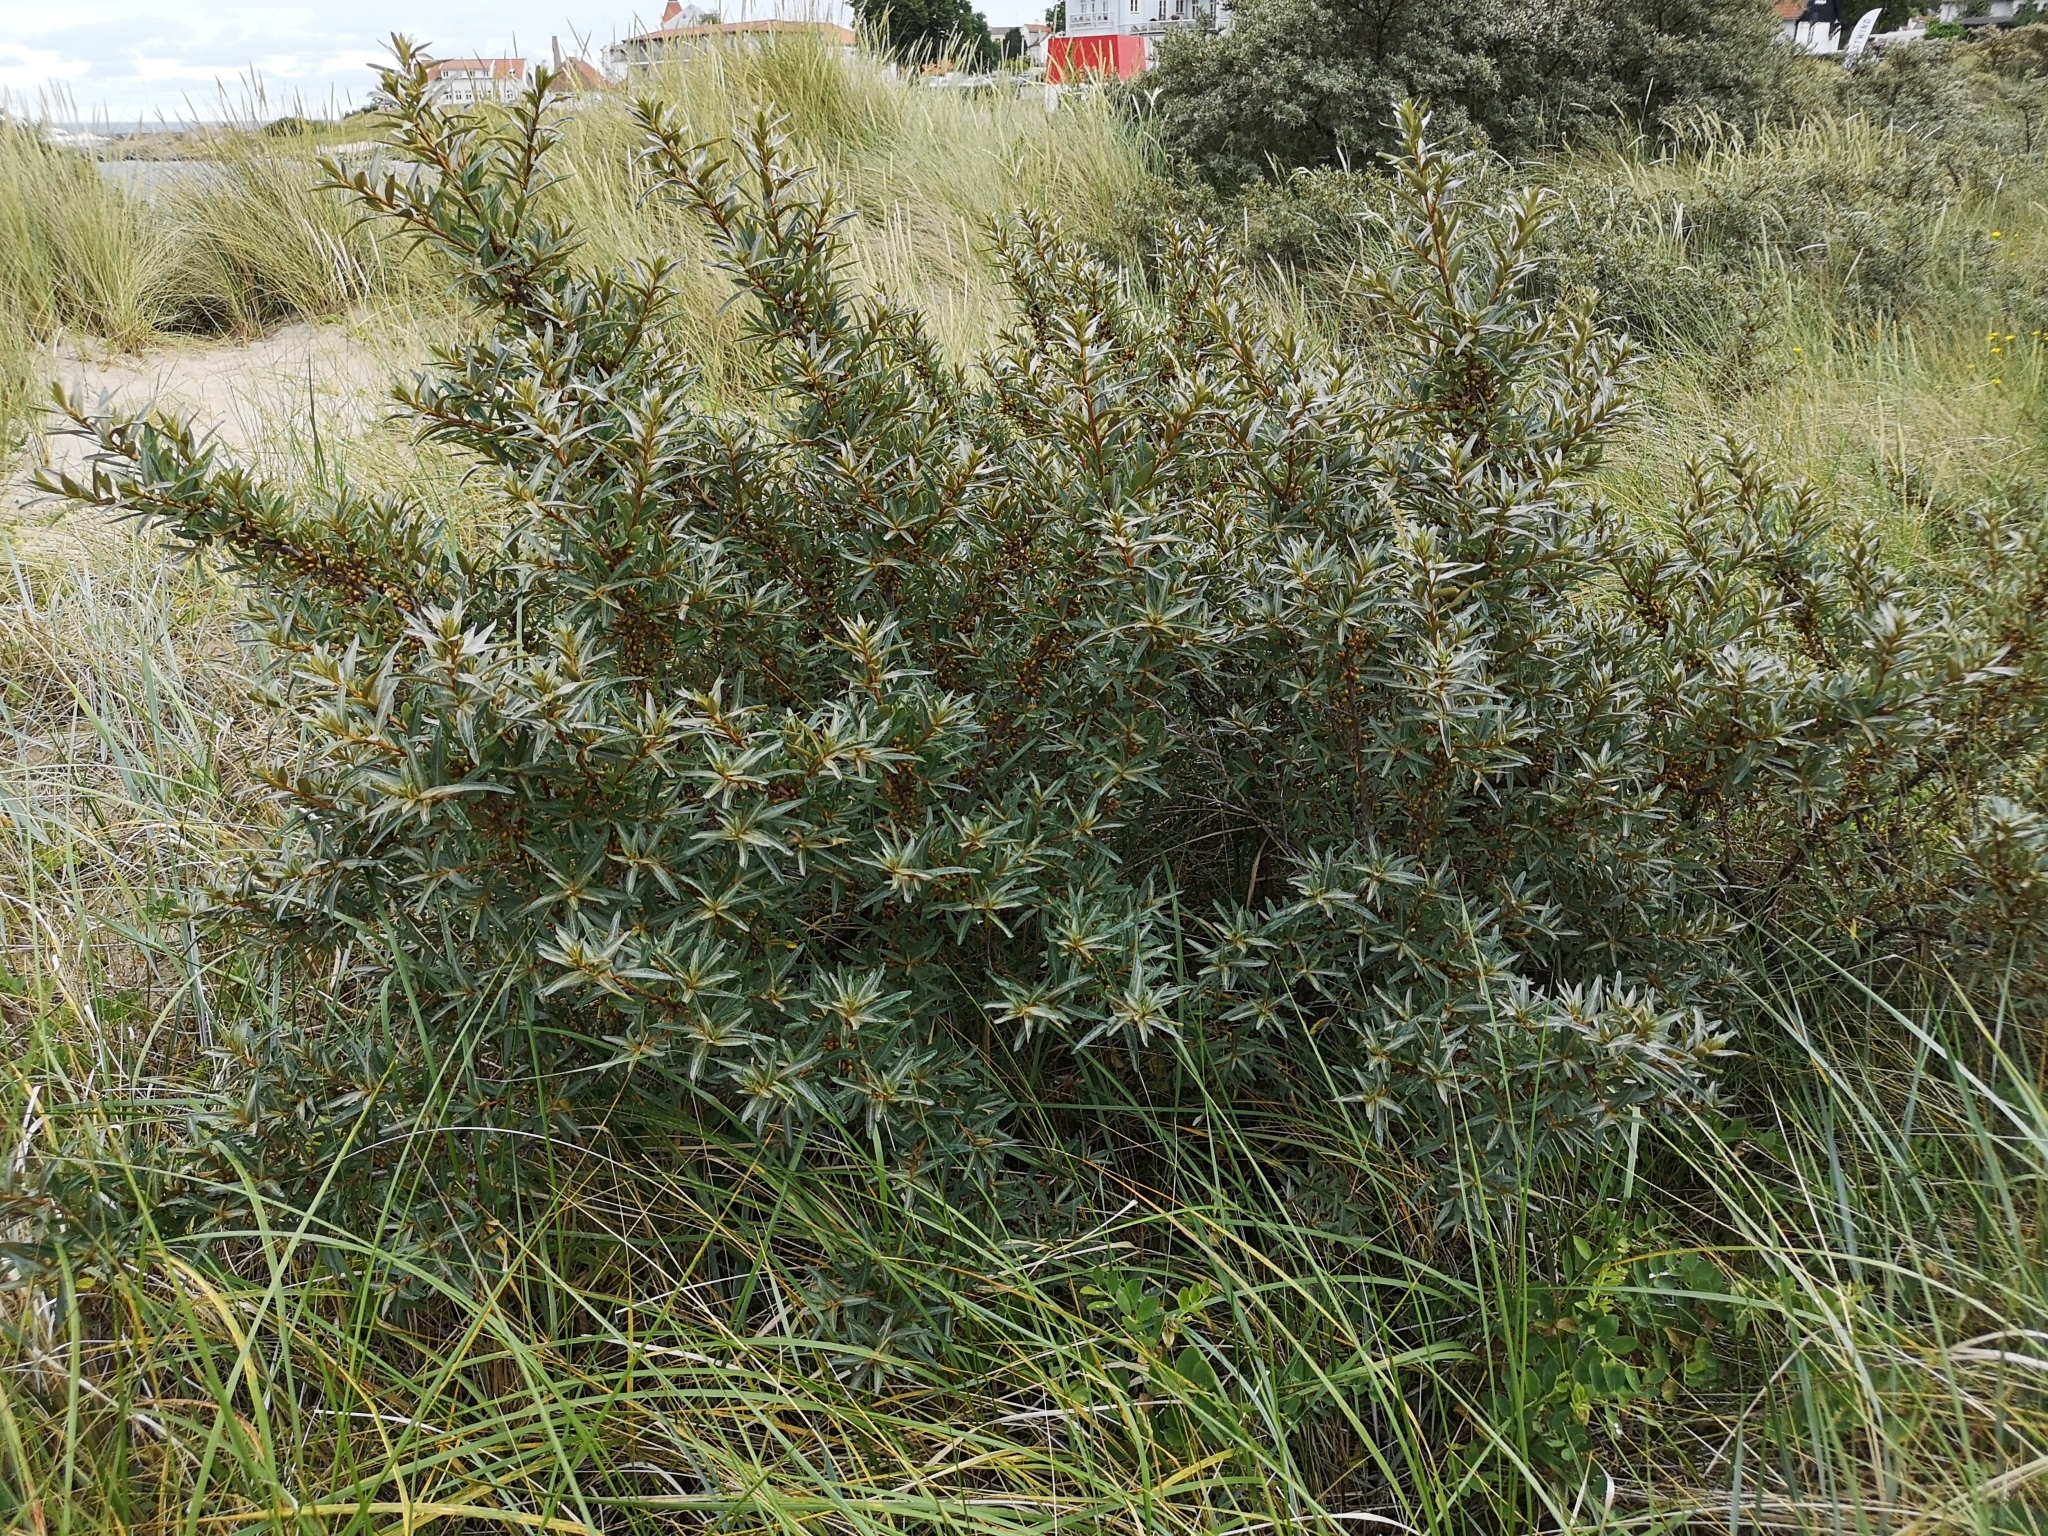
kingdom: Plantae
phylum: Tracheophyta
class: Magnoliopsida
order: Rosales
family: Elaeagnaceae
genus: Hippophae
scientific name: Hippophae rhamnoides
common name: Sea-buckthorn
